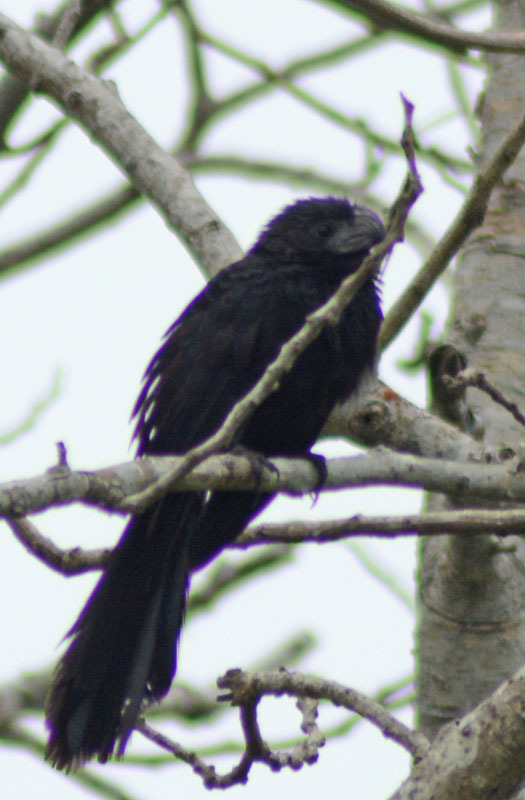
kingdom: Animalia
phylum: Chordata
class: Aves
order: Cuculiformes
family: Cuculidae
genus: Crotophaga
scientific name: Crotophaga sulcirostris
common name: Groove-billed ani
